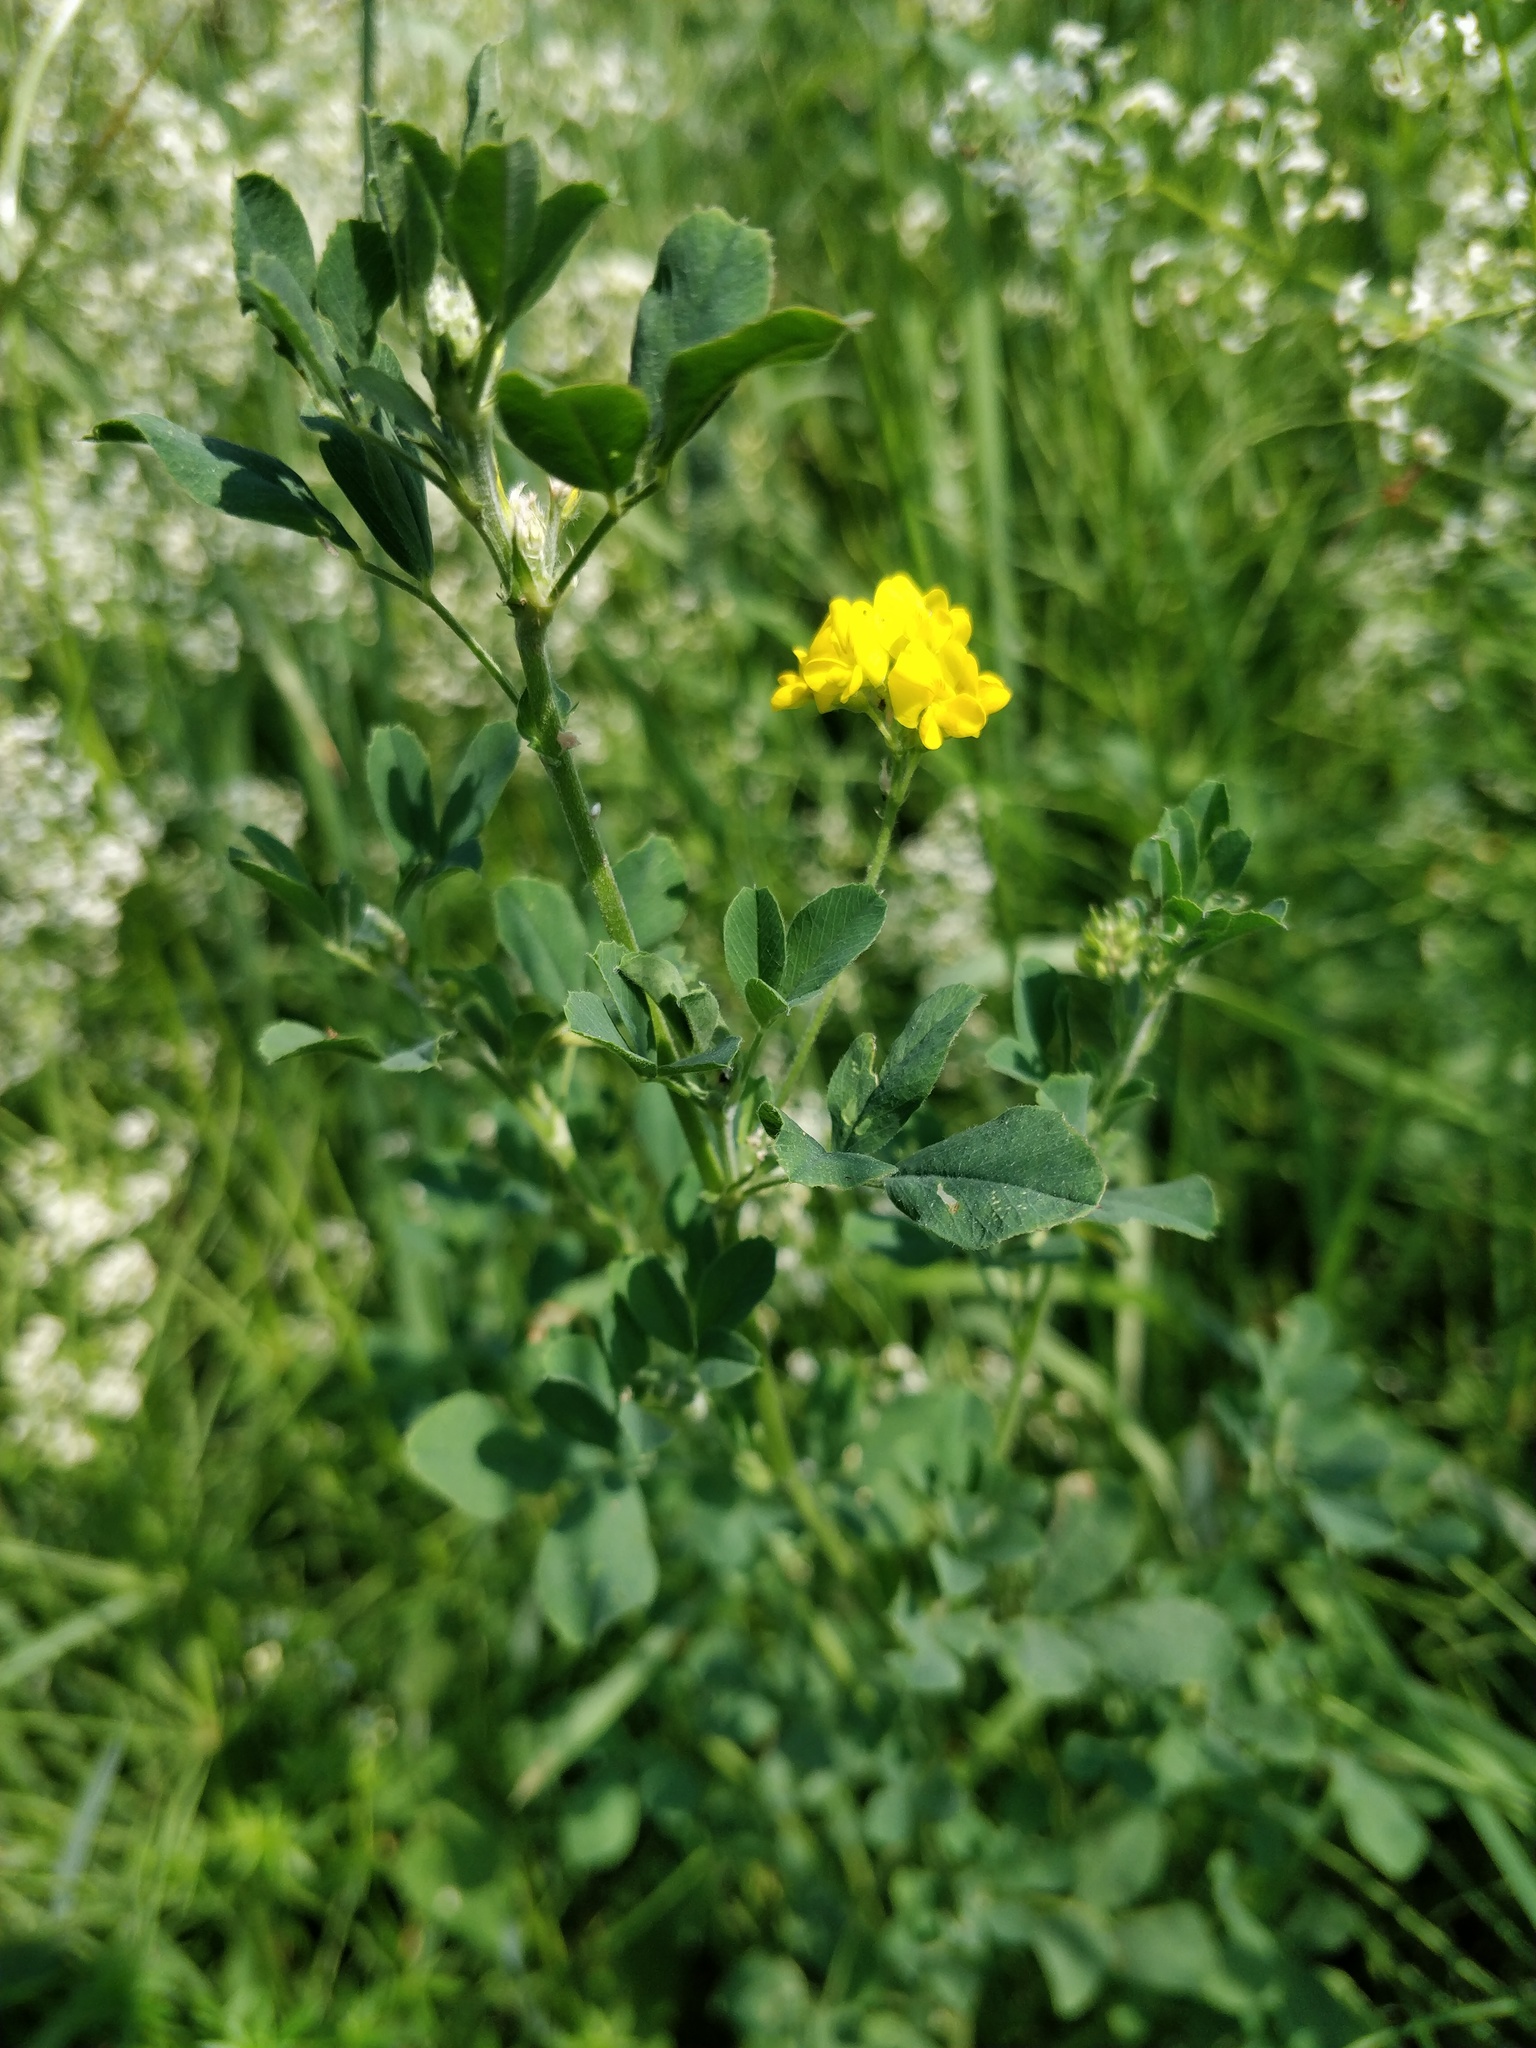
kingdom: Plantae
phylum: Tracheophyta
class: Magnoliopsida
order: Fabales
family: Fabaceae
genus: Medicago
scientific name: Medicago falcata
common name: Sickle medick
